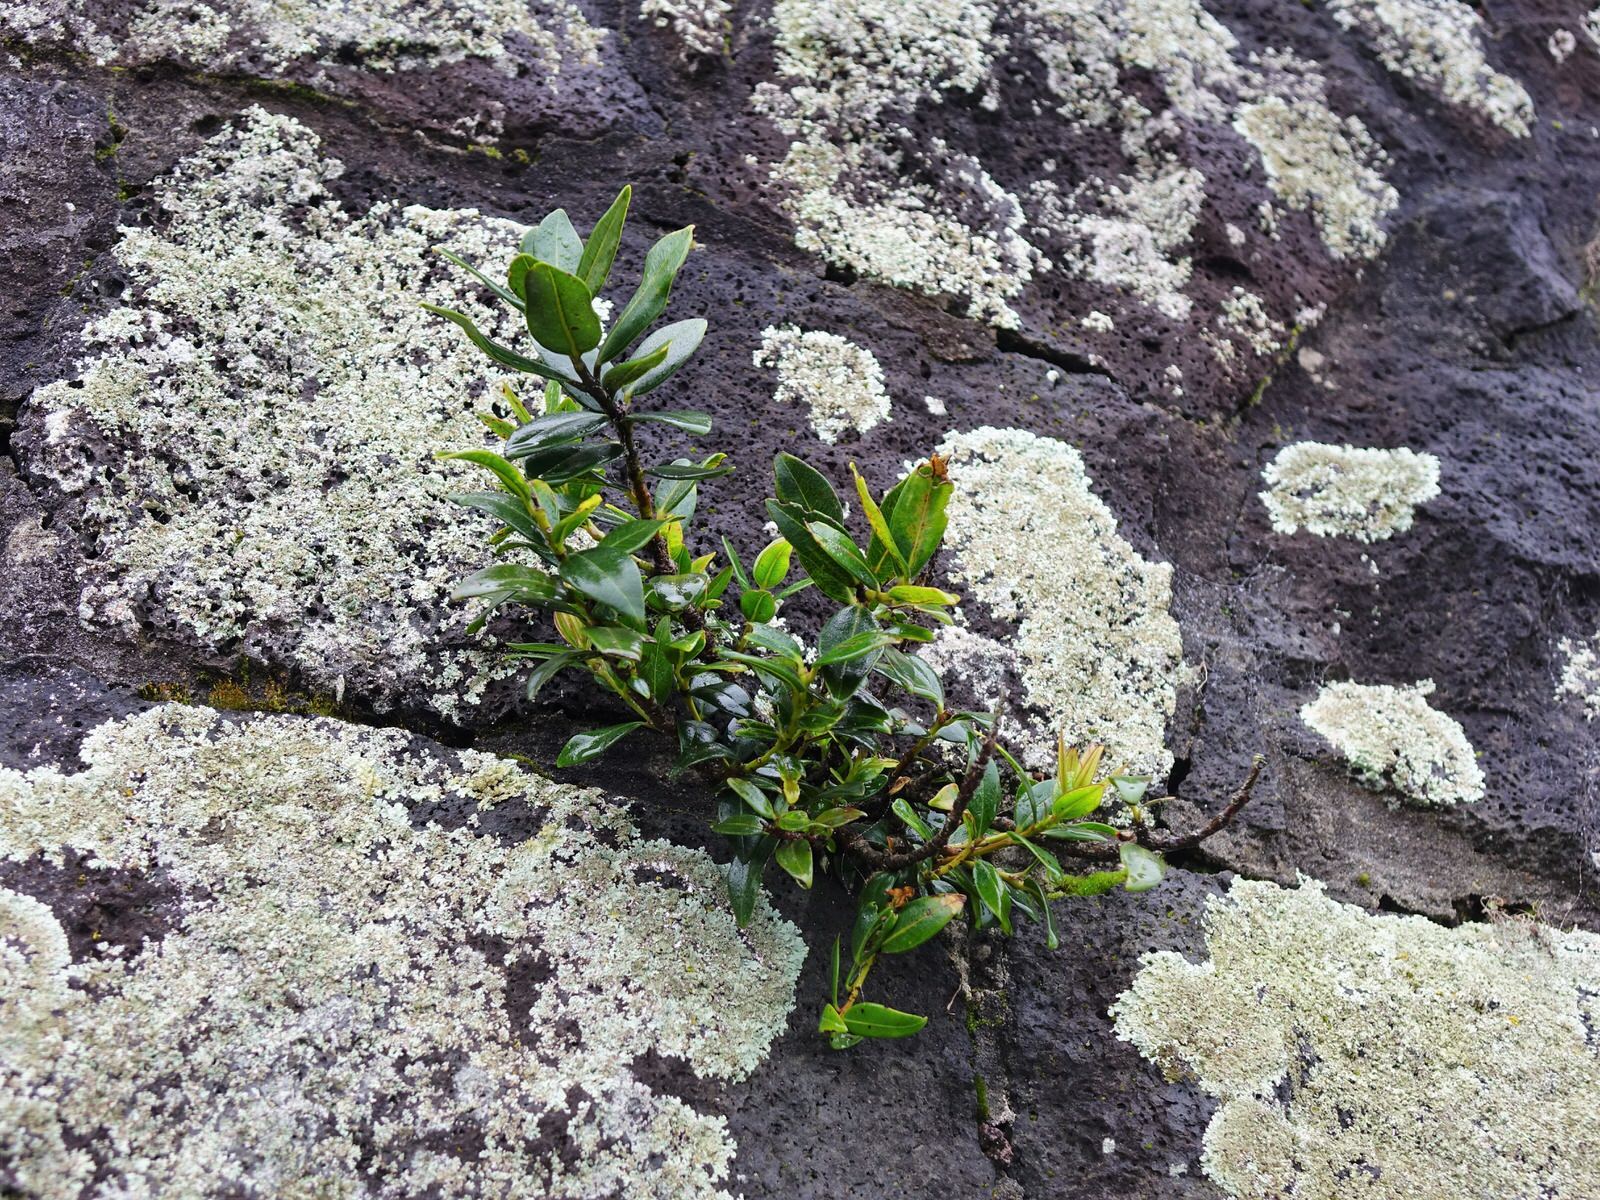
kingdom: Plantae
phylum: Tracheophyta
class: Magnoliopsida
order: Myrtales
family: Myrtaceae
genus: Metrosideros
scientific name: Metrosideros excelsa
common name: New zealand christmastree
